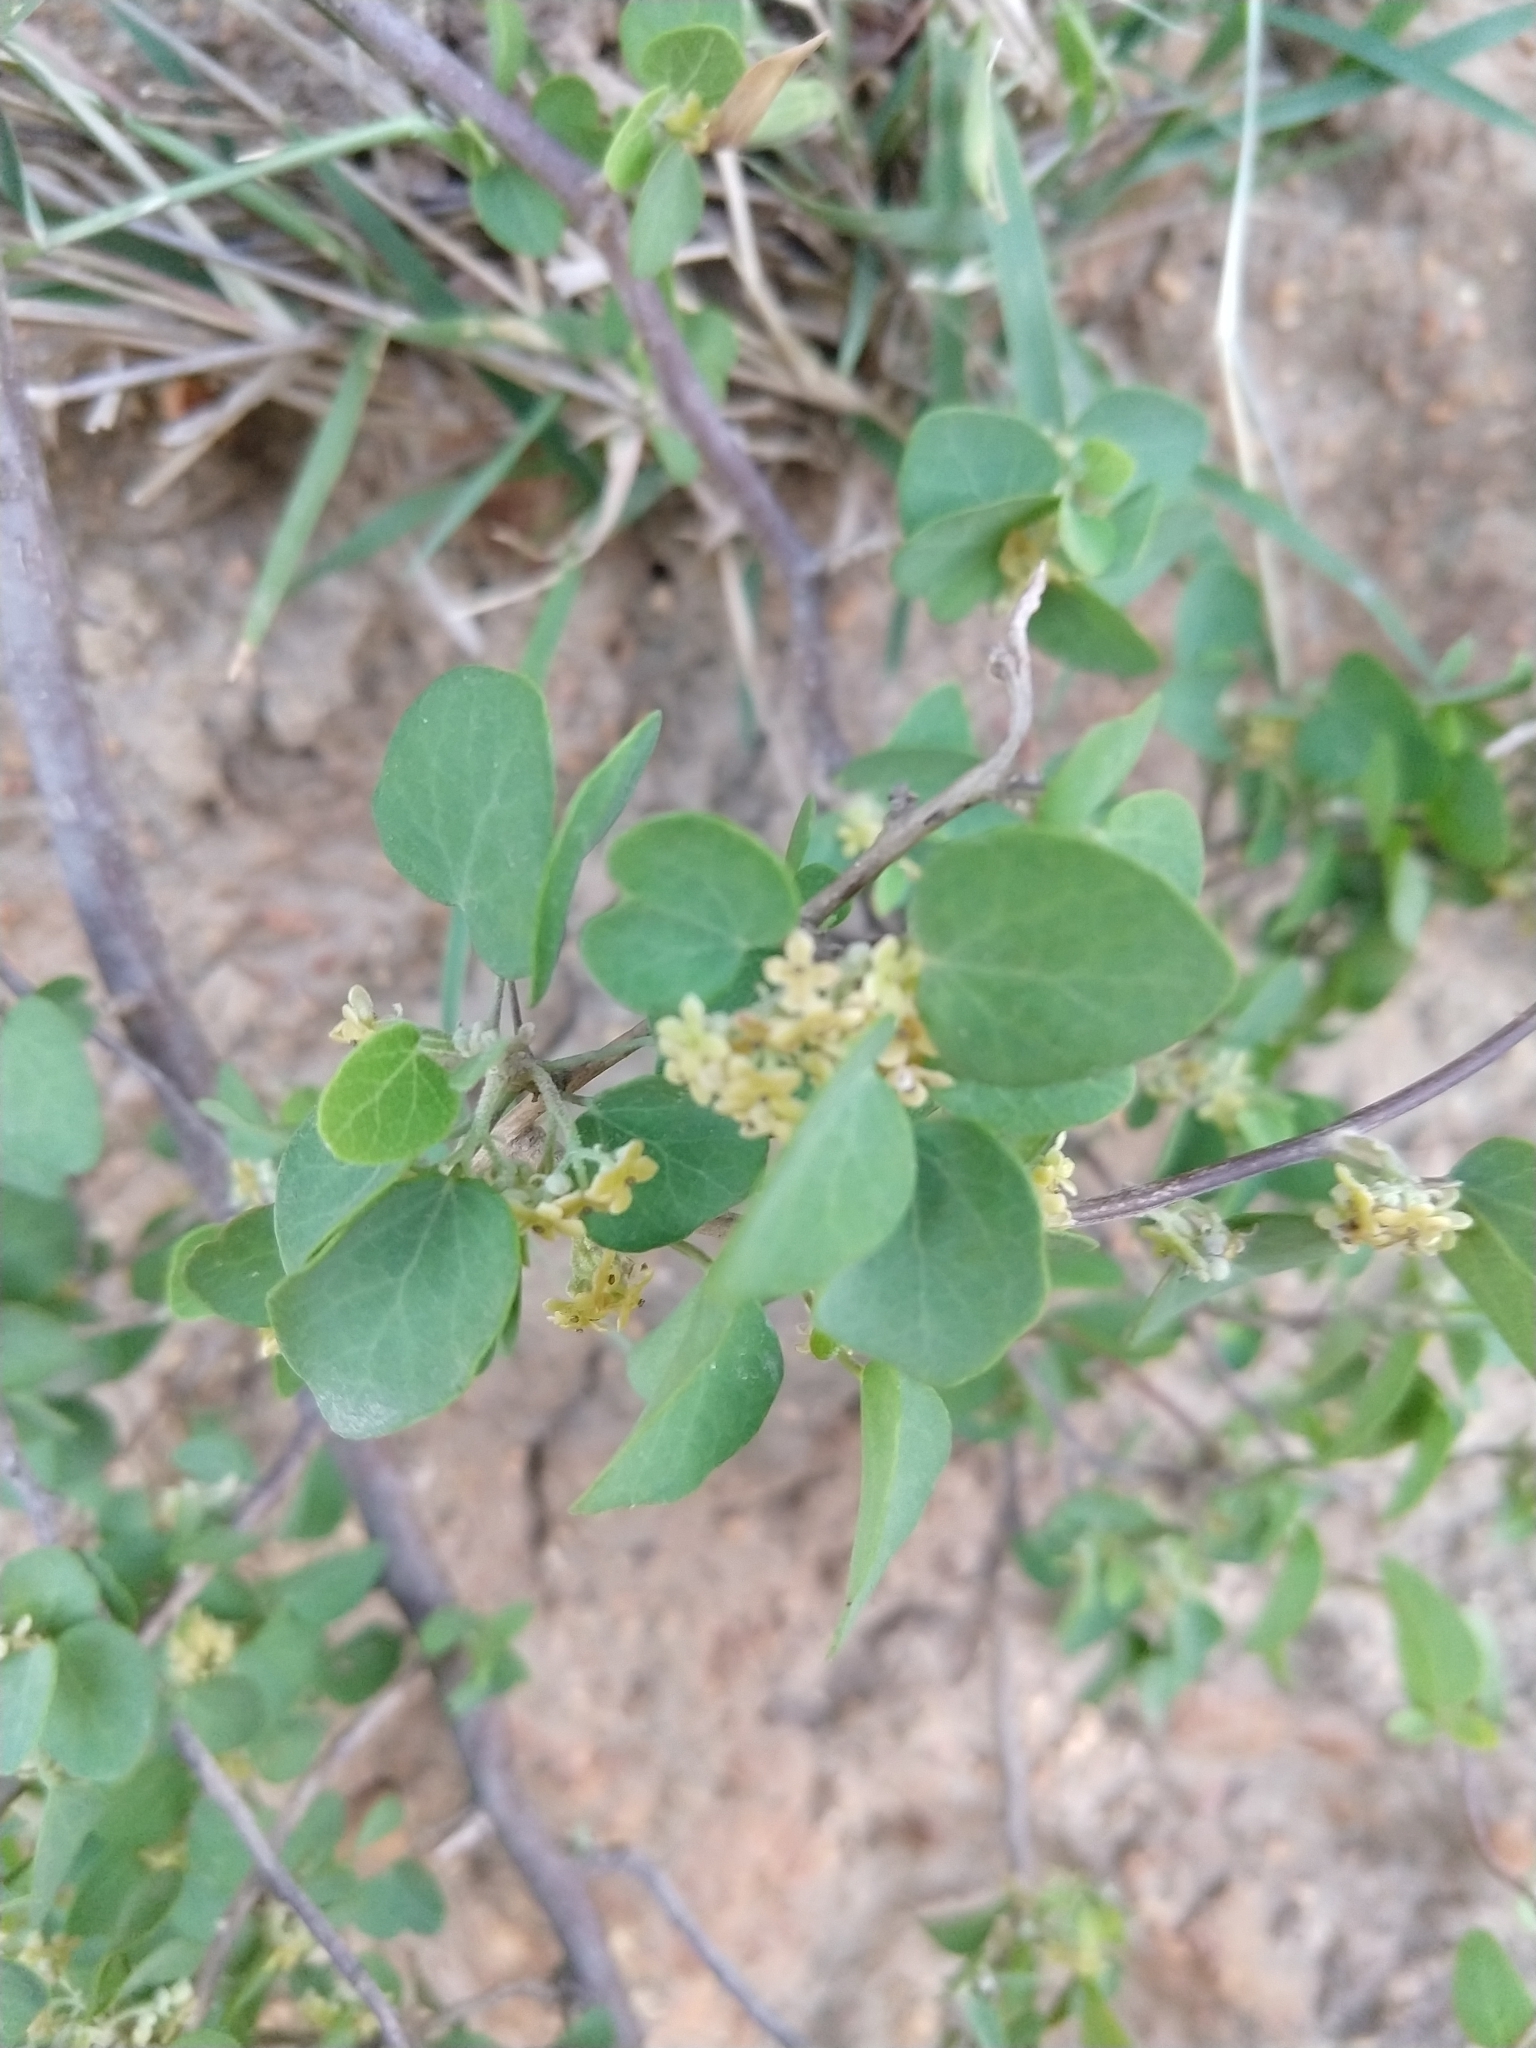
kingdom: Plantae
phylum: Tracheophyta
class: Magnoliopsida
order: Ranunculales
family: Menispermaceae
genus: Cissampelos
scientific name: Cissampelos capensis
